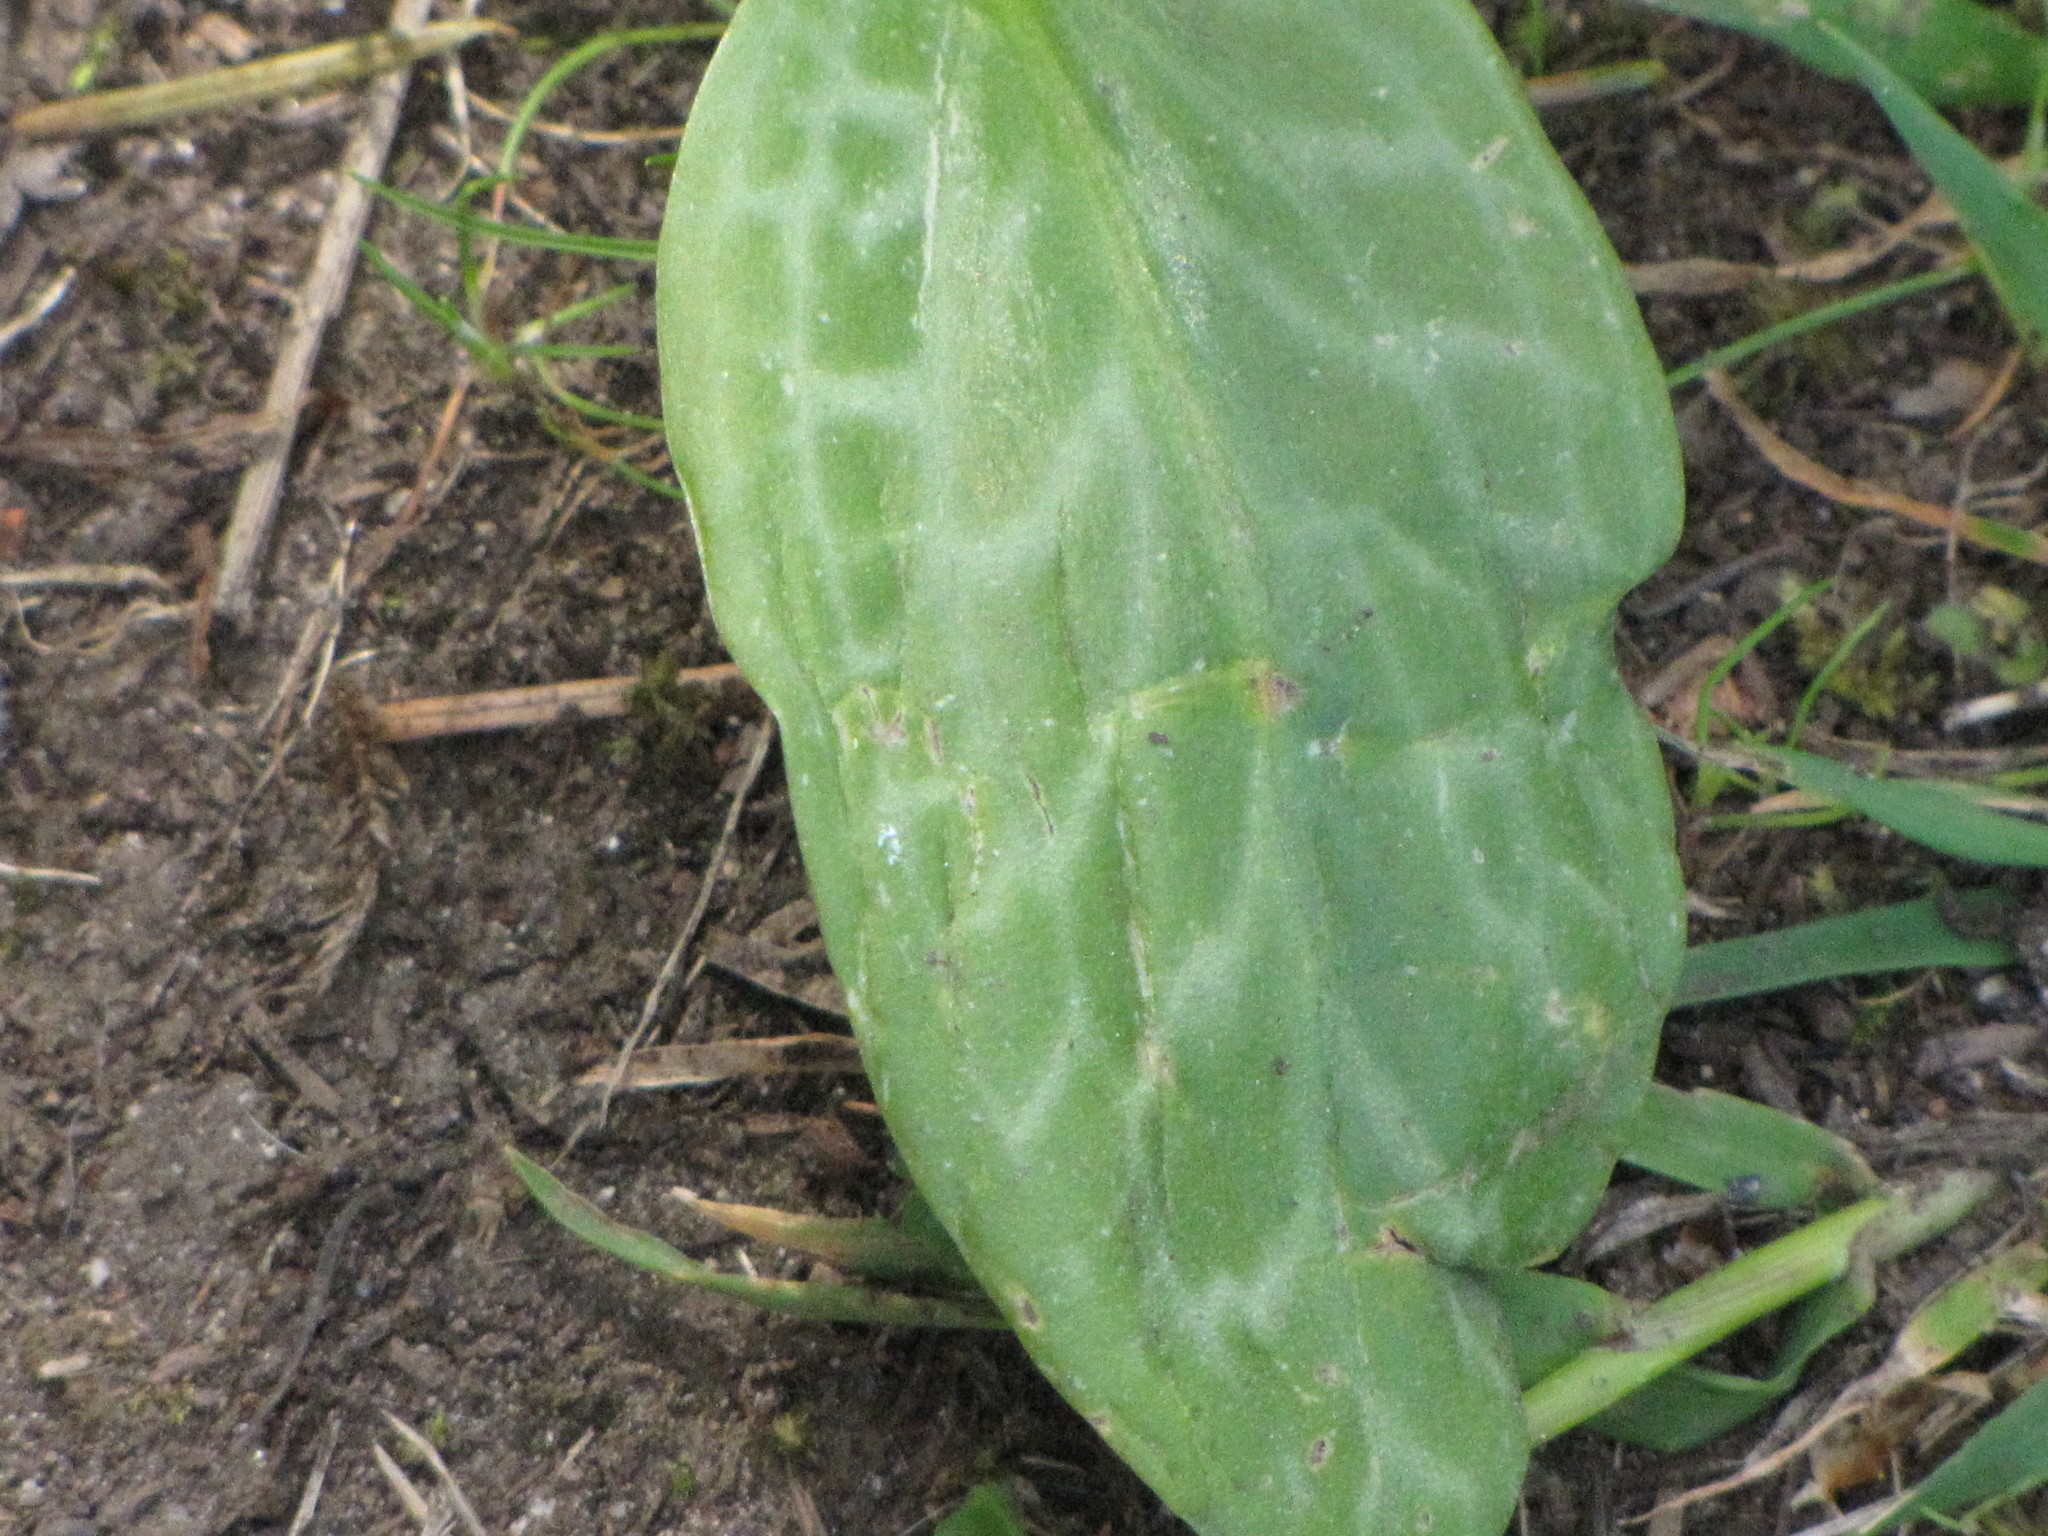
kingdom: Plantae
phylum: Tracheophyta
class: Liliopsida
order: Liliales
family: Liliaceae
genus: Erythronium
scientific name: Erythronium oregonum
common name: Giant adder's-tongue
